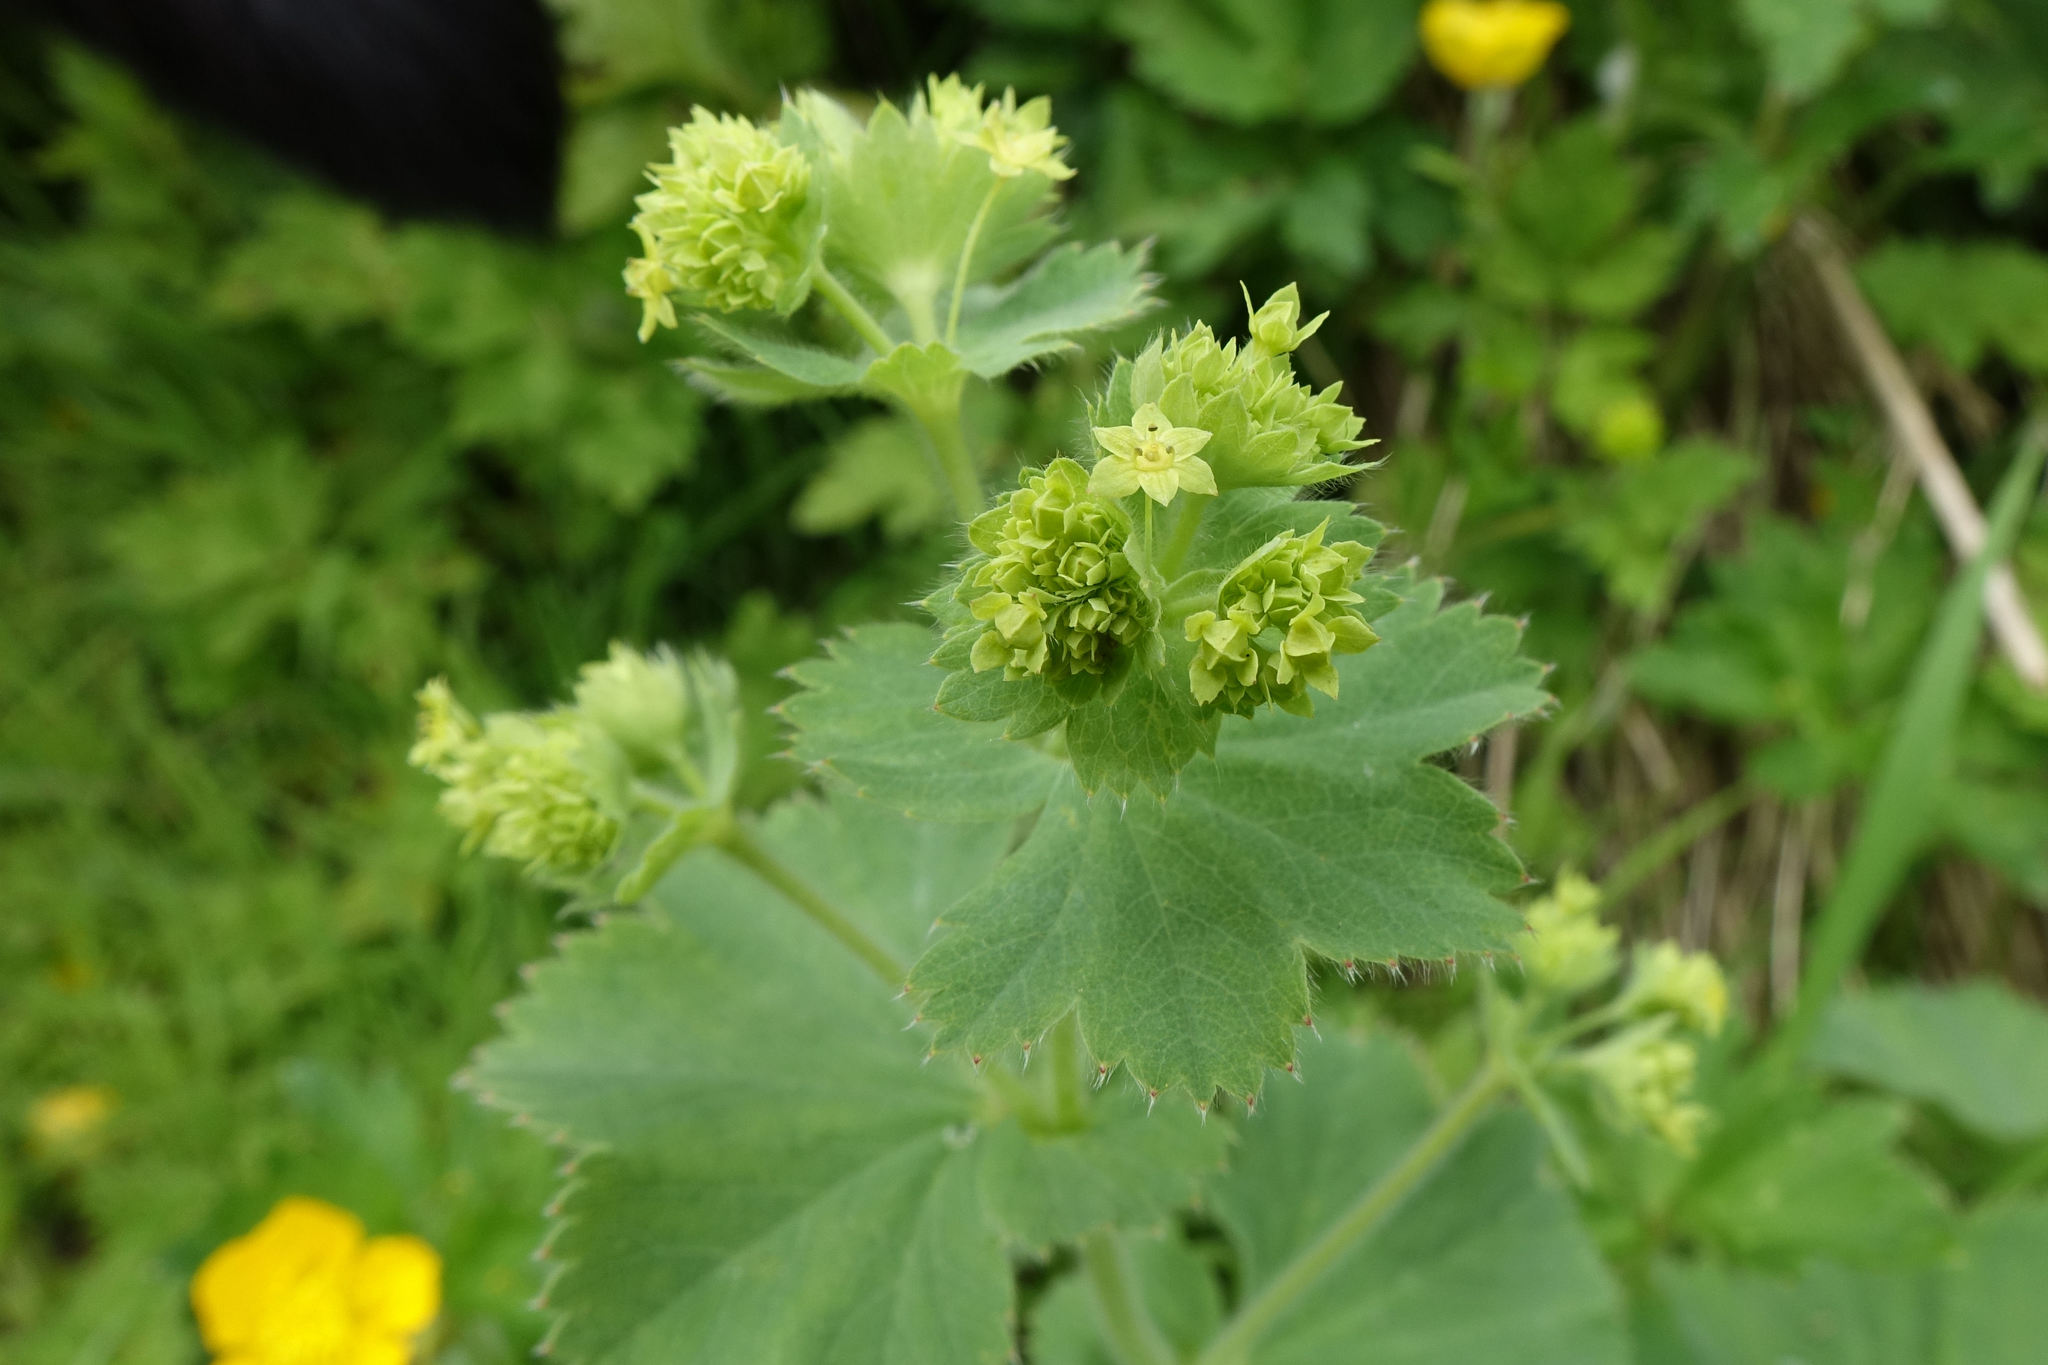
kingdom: Plantae
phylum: Tracheophyta
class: Magnoliopsida
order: Rosales
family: Rosaceae
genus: Alchemilla
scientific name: Alchemilla mollis
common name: Lady's-mantle
